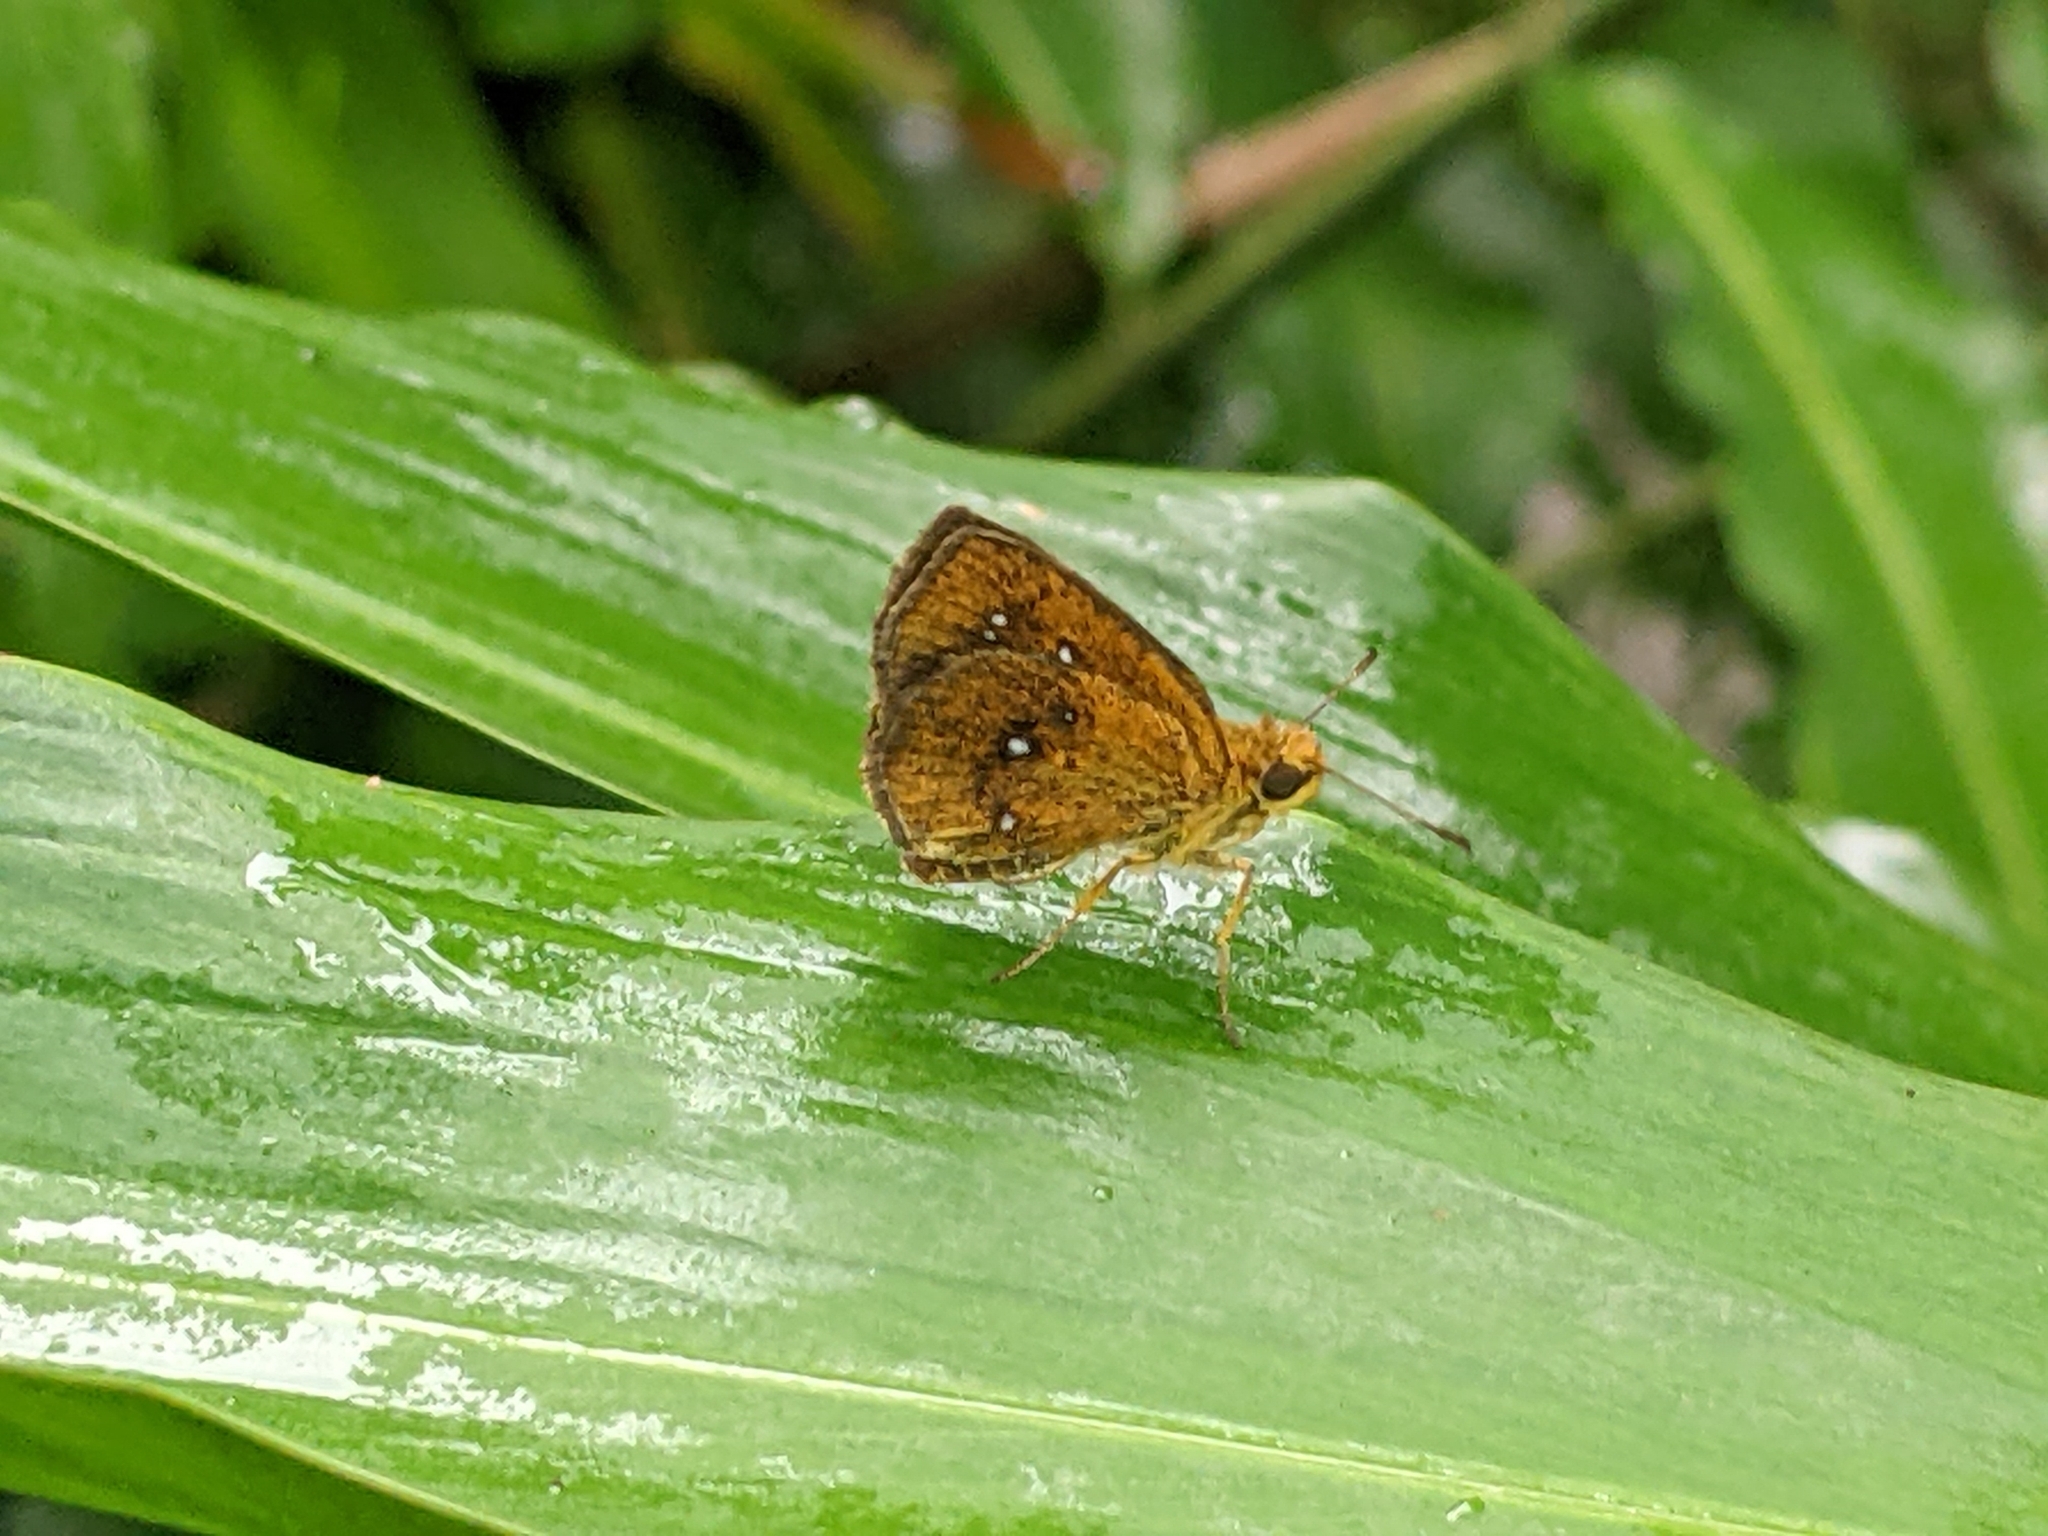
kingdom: Animalia
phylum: Arthropoda
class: Insecta
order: Lepidoptera
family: Hesperiidae
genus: Iambrix
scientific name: Iambrix salsala
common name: Chestnut bob
